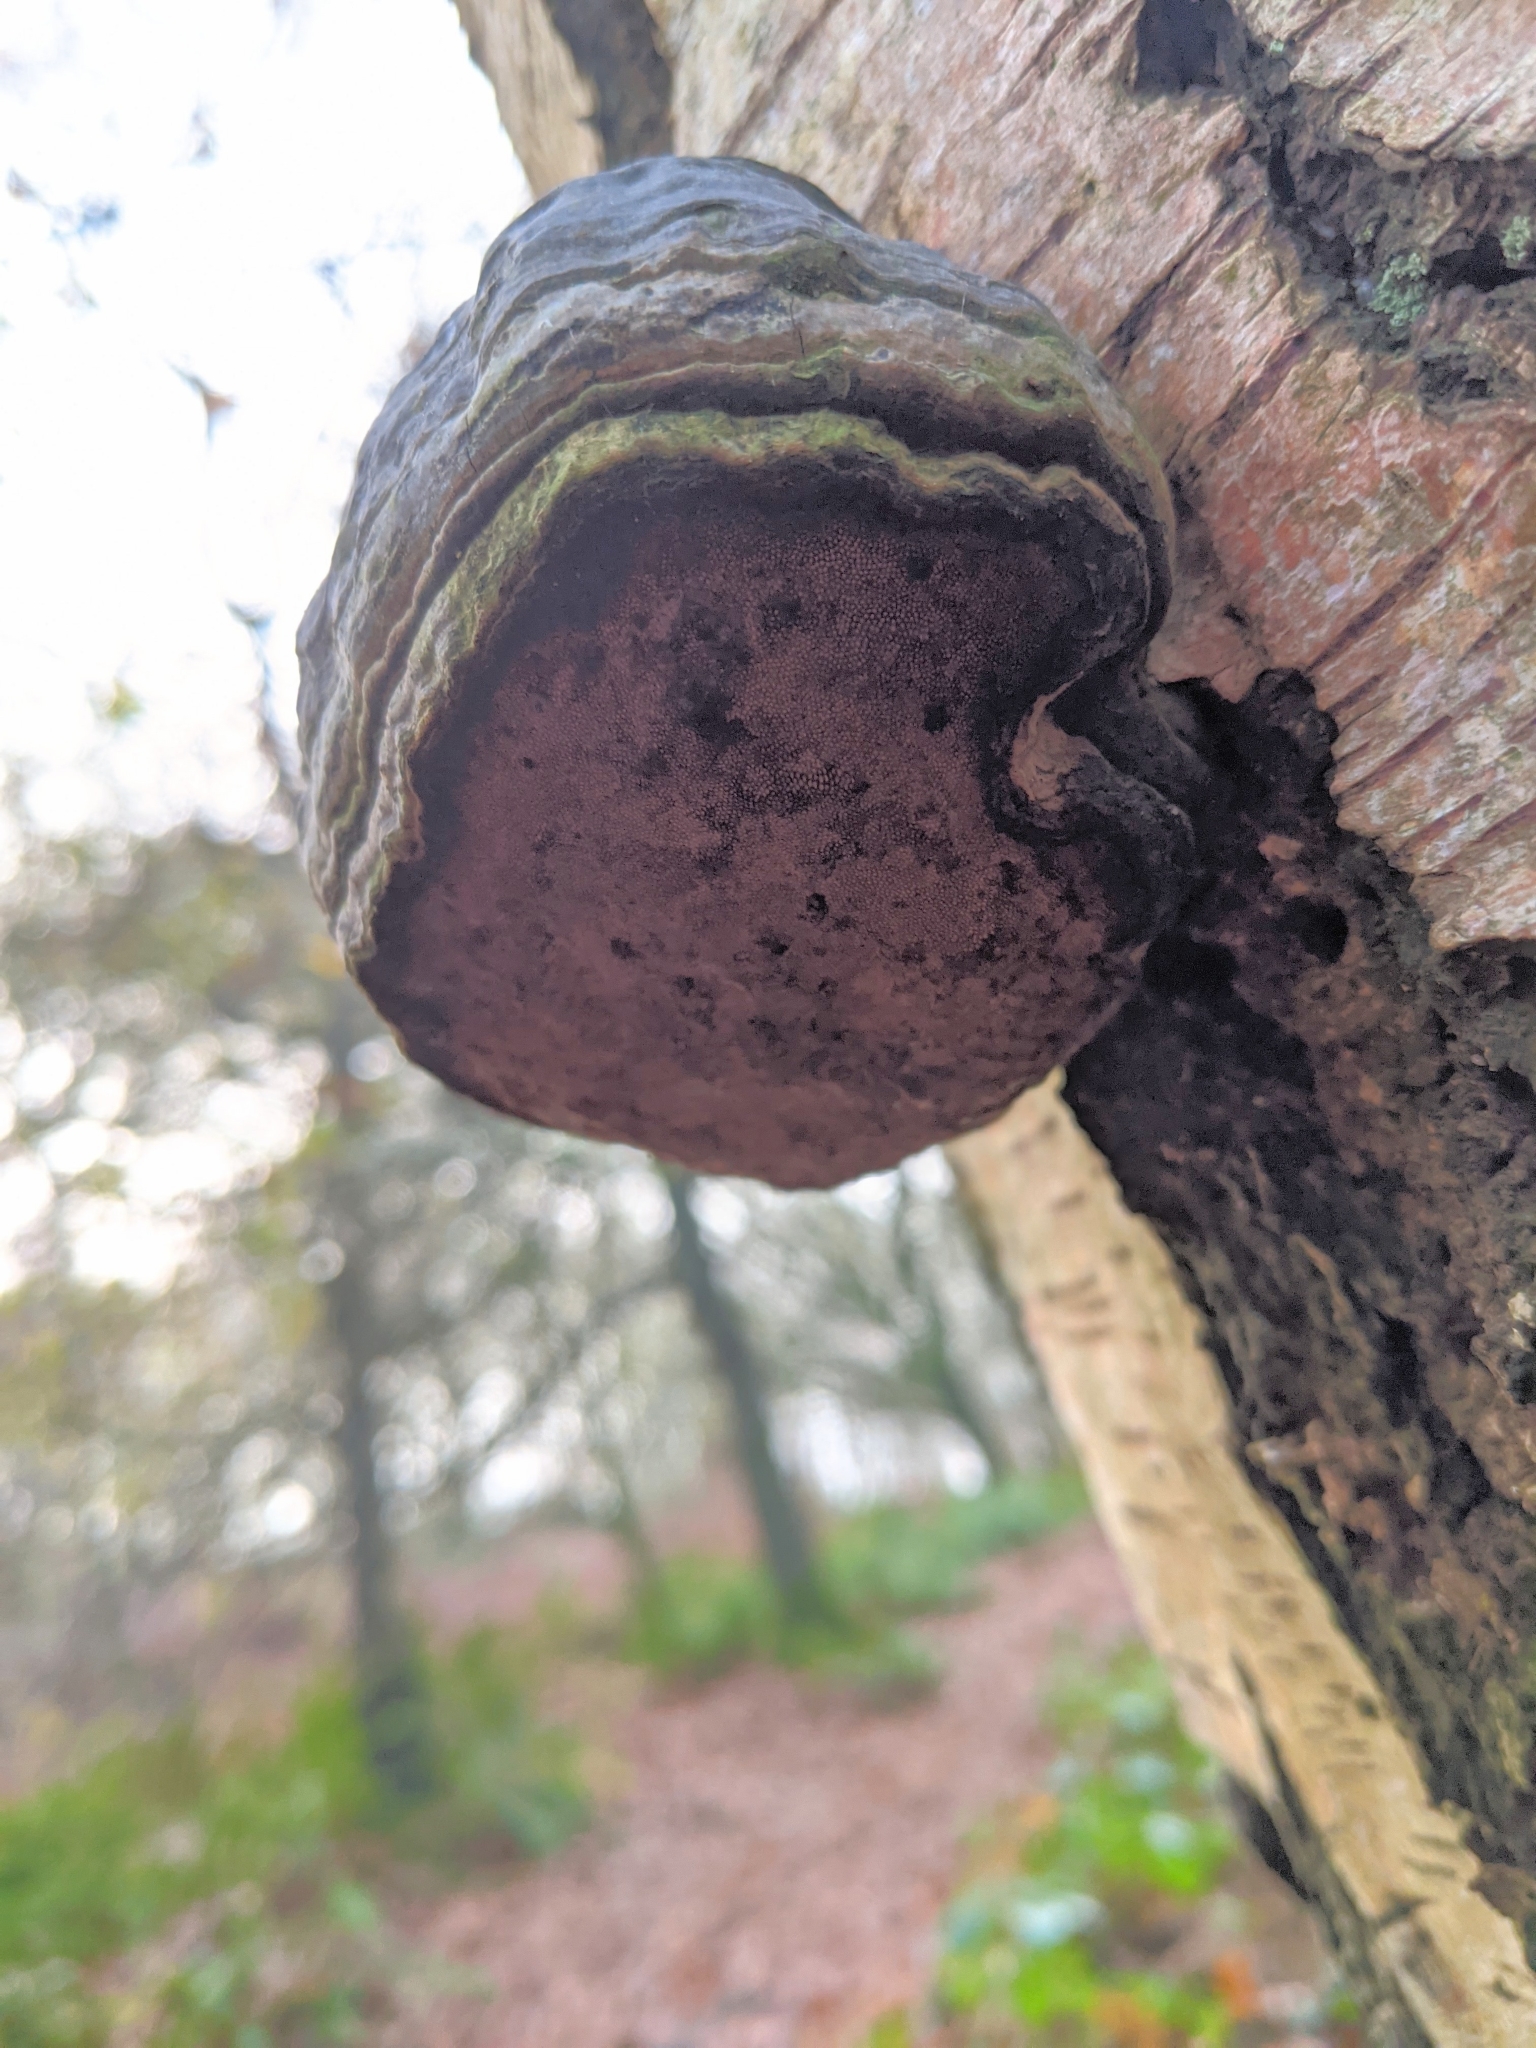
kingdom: Fungi
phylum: Basidiomycota
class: Agaricomycetes
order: Polyporales
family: Polyporaceae
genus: Fomes
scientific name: Fomes fomentarius
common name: Hoof fungus
